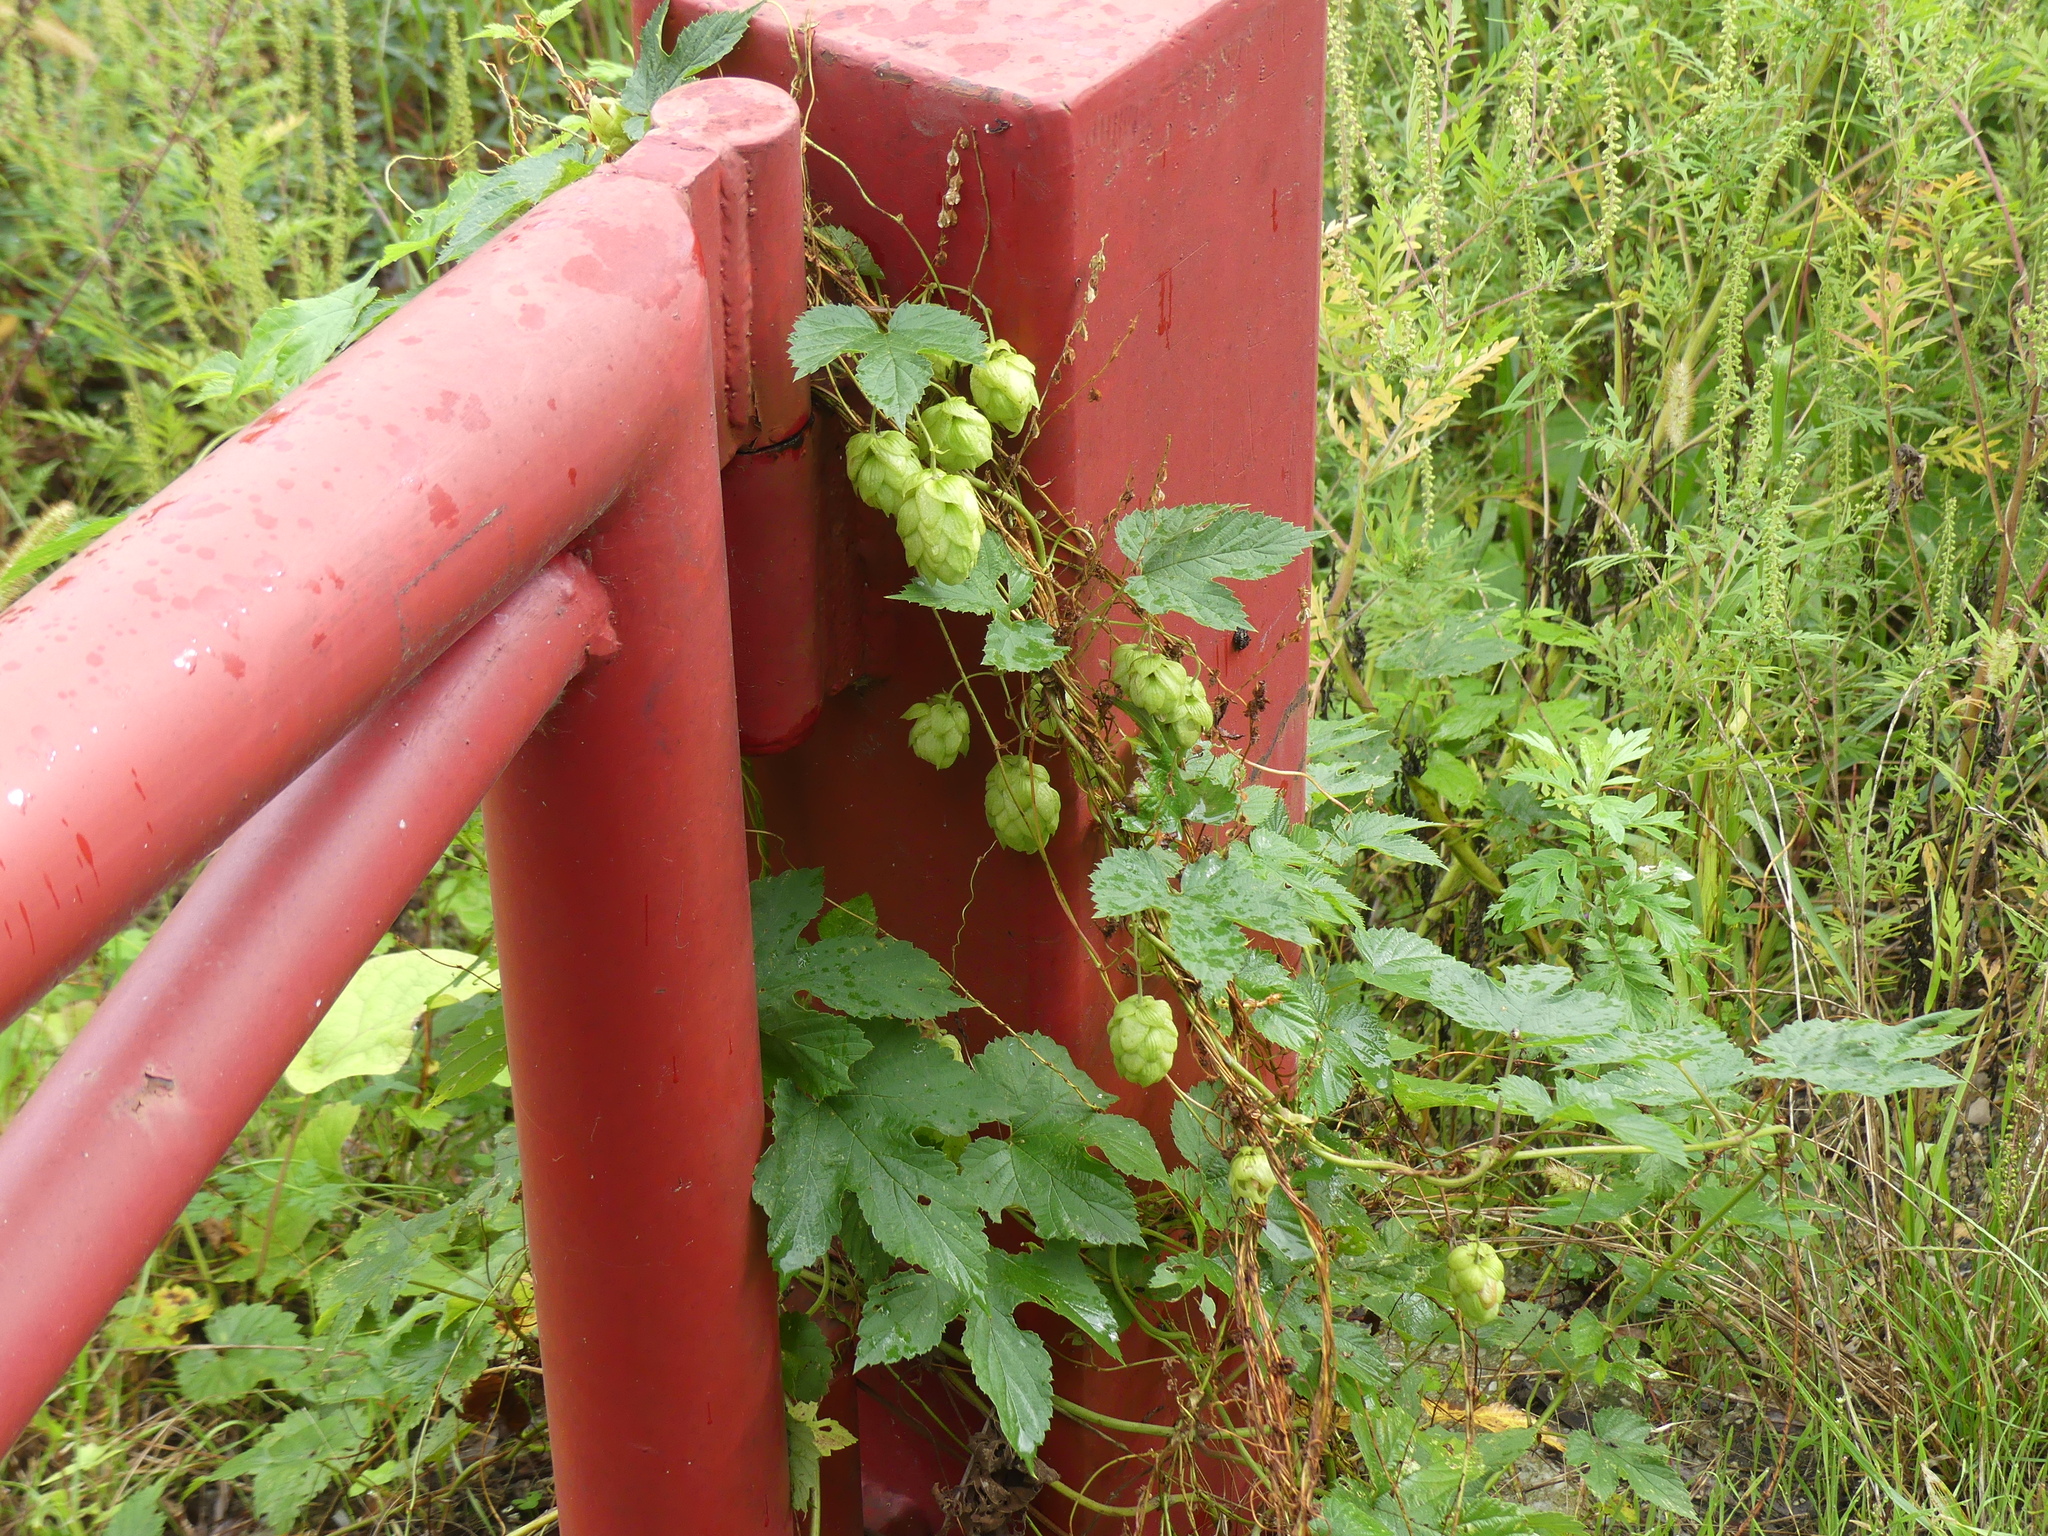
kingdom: Plantae
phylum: Tracheophyta
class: Magnoliopsida
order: Rosales
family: Cannabaceae
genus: Humulus
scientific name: Humulus lupulus
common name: Hop
